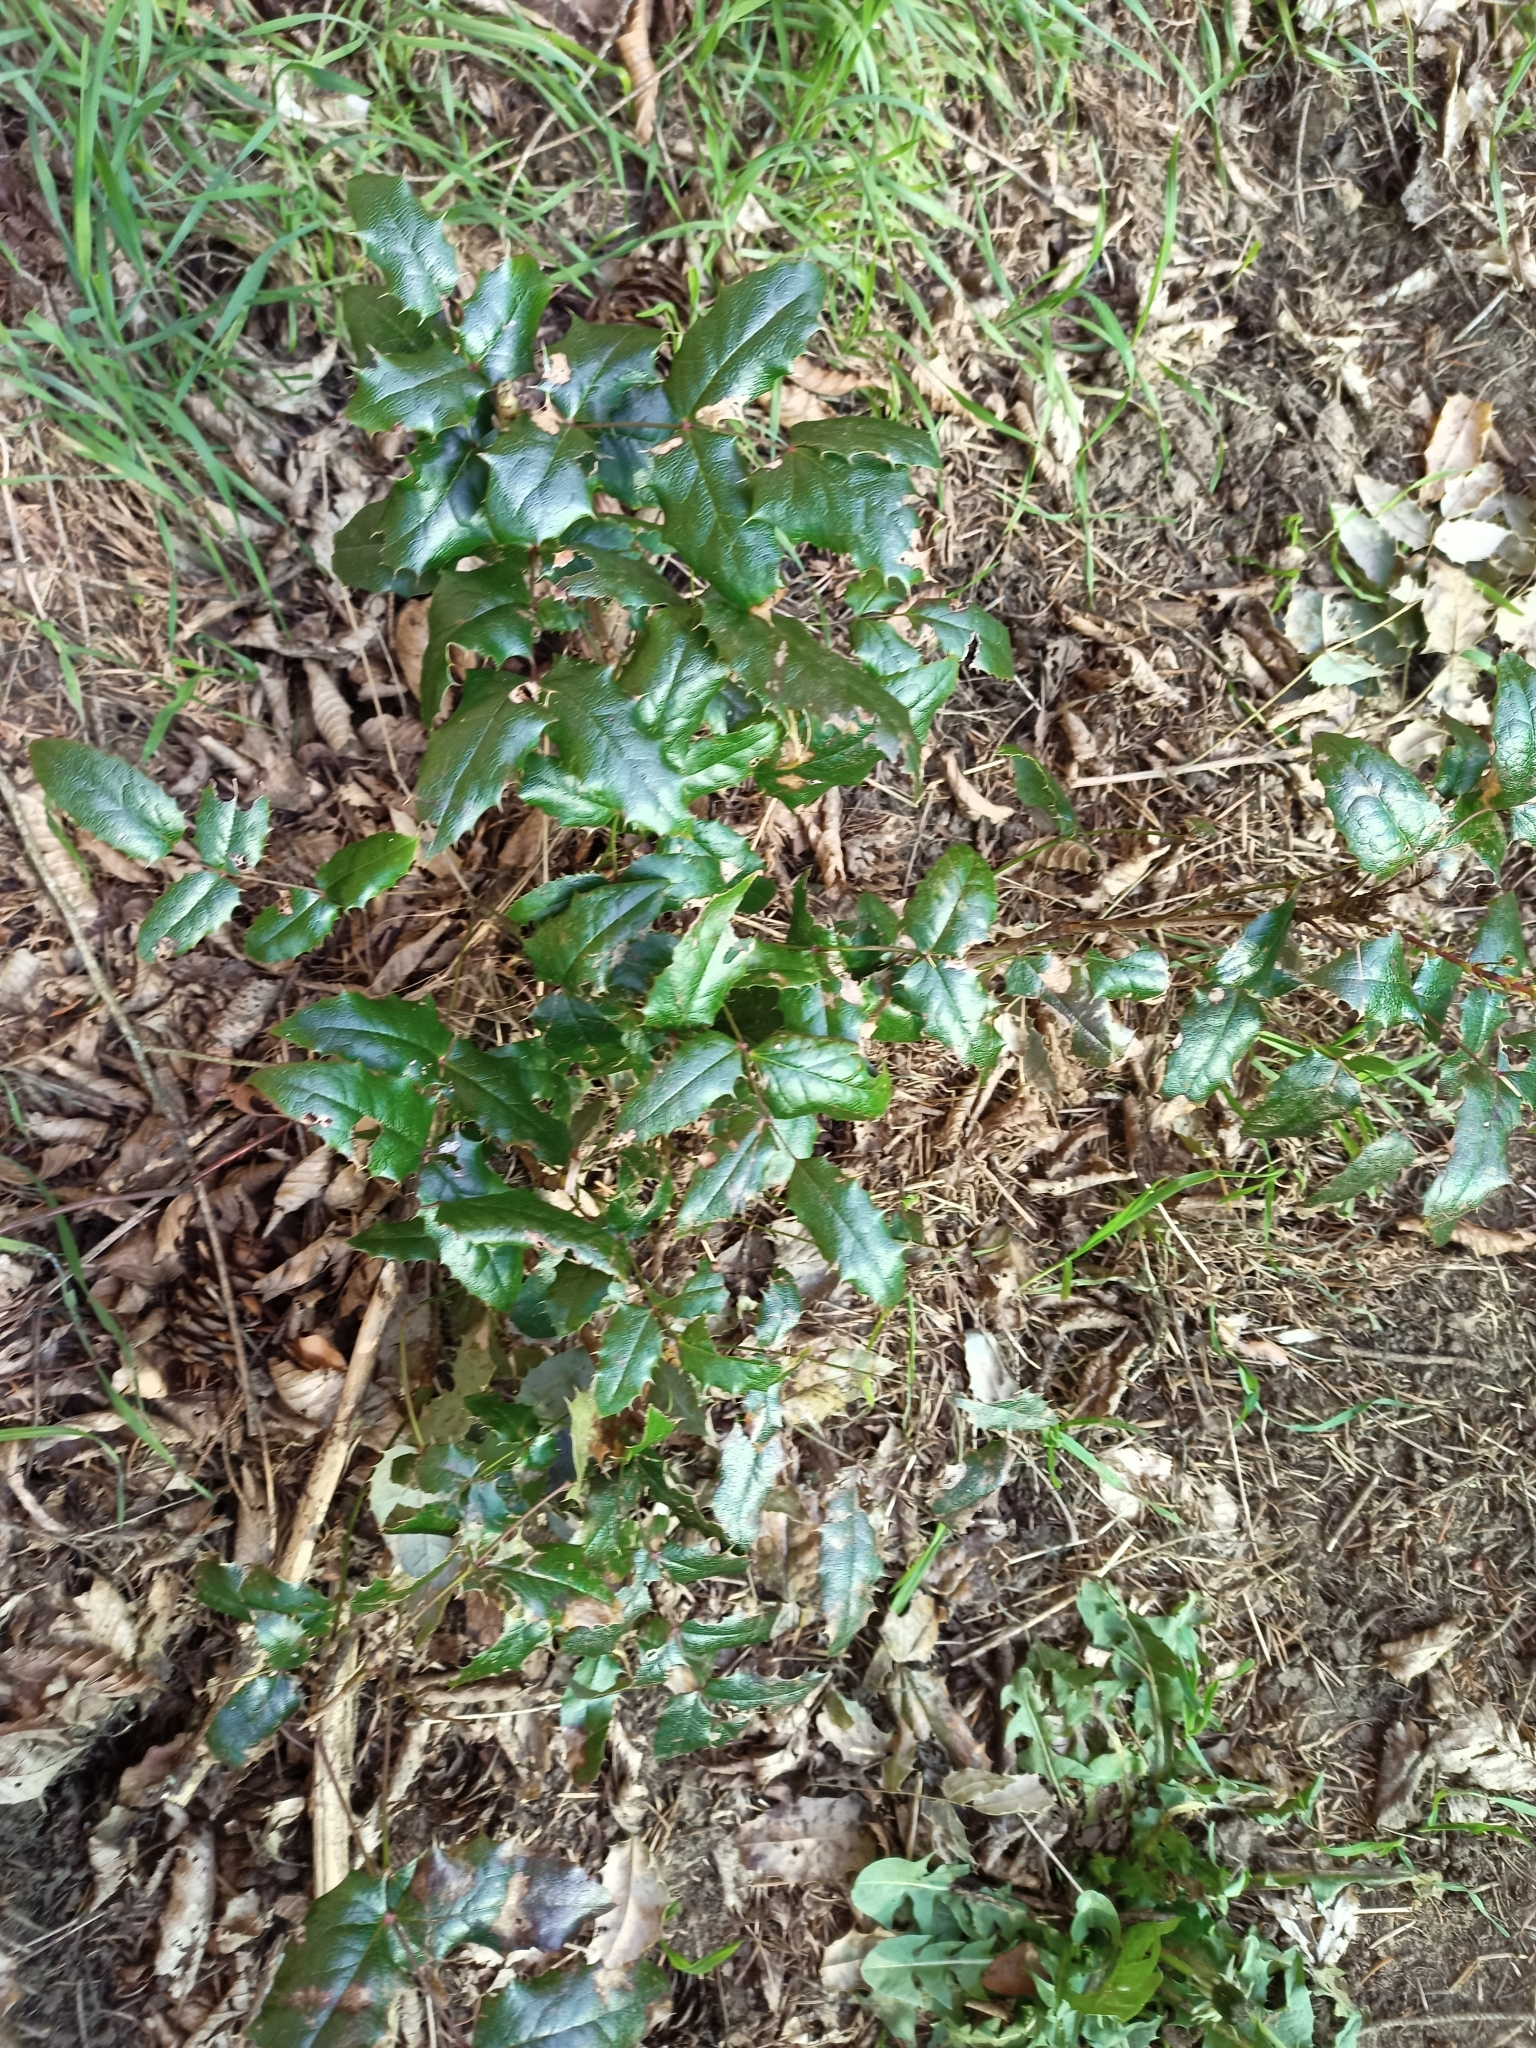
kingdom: Plantae
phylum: Tracheophyta
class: Magnoliopsida
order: Ranunculales
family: Berberidaceae
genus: Mahonia
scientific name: Mahonia aquifolium
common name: Oregon-grape
